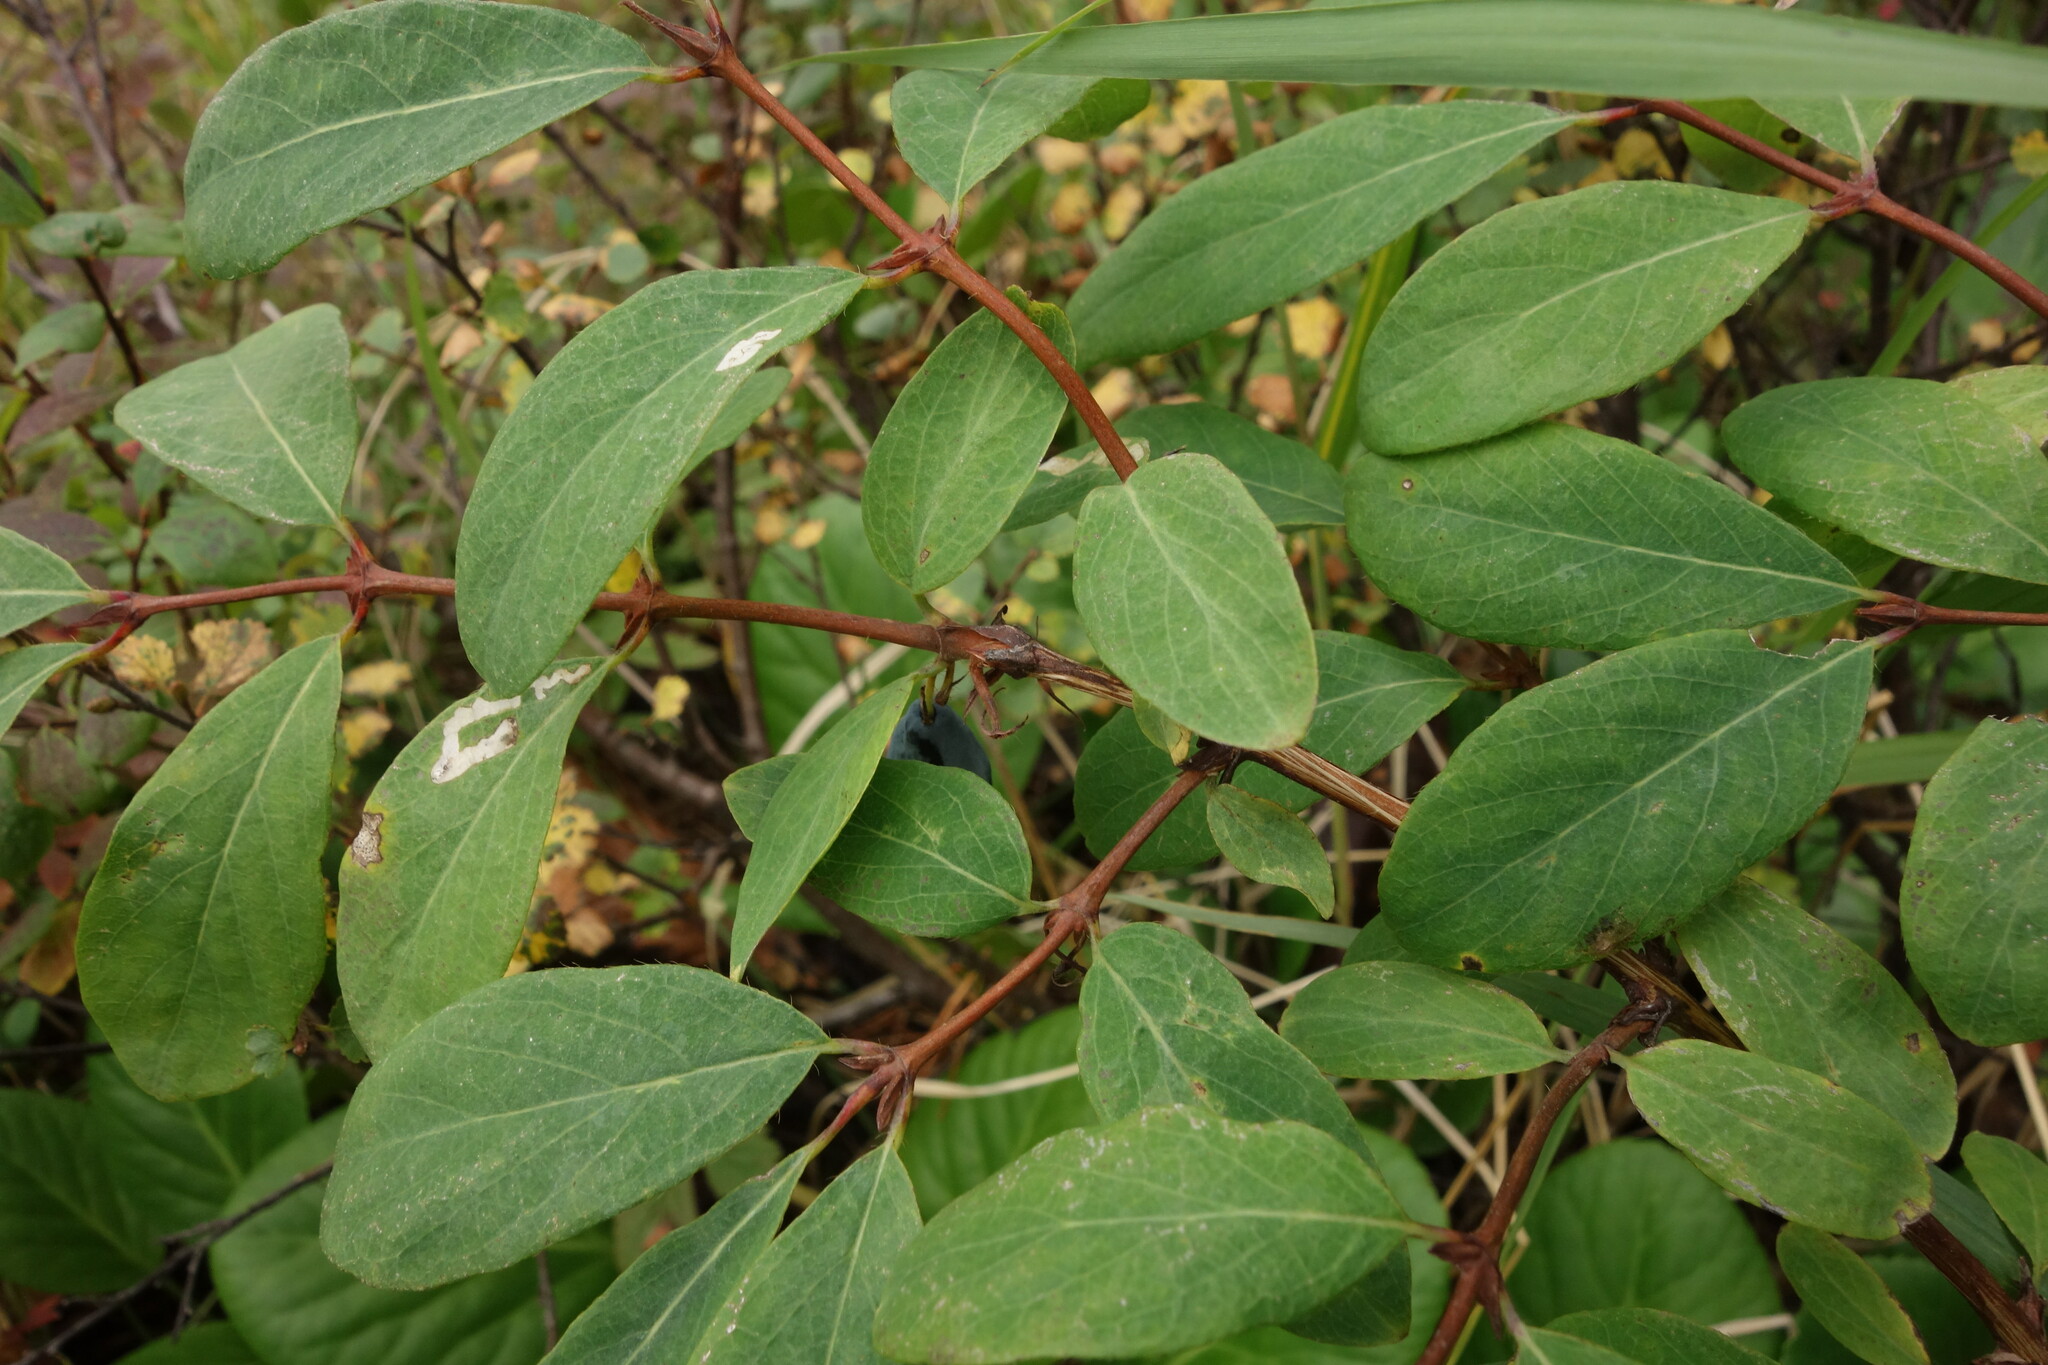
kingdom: Plantae
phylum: Tracheophyta
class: Magnoliopsida
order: Dipsacales
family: Caprifoliaceae
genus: Lonicera
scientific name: Lonicera caerulea
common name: Blue honeysuckle
